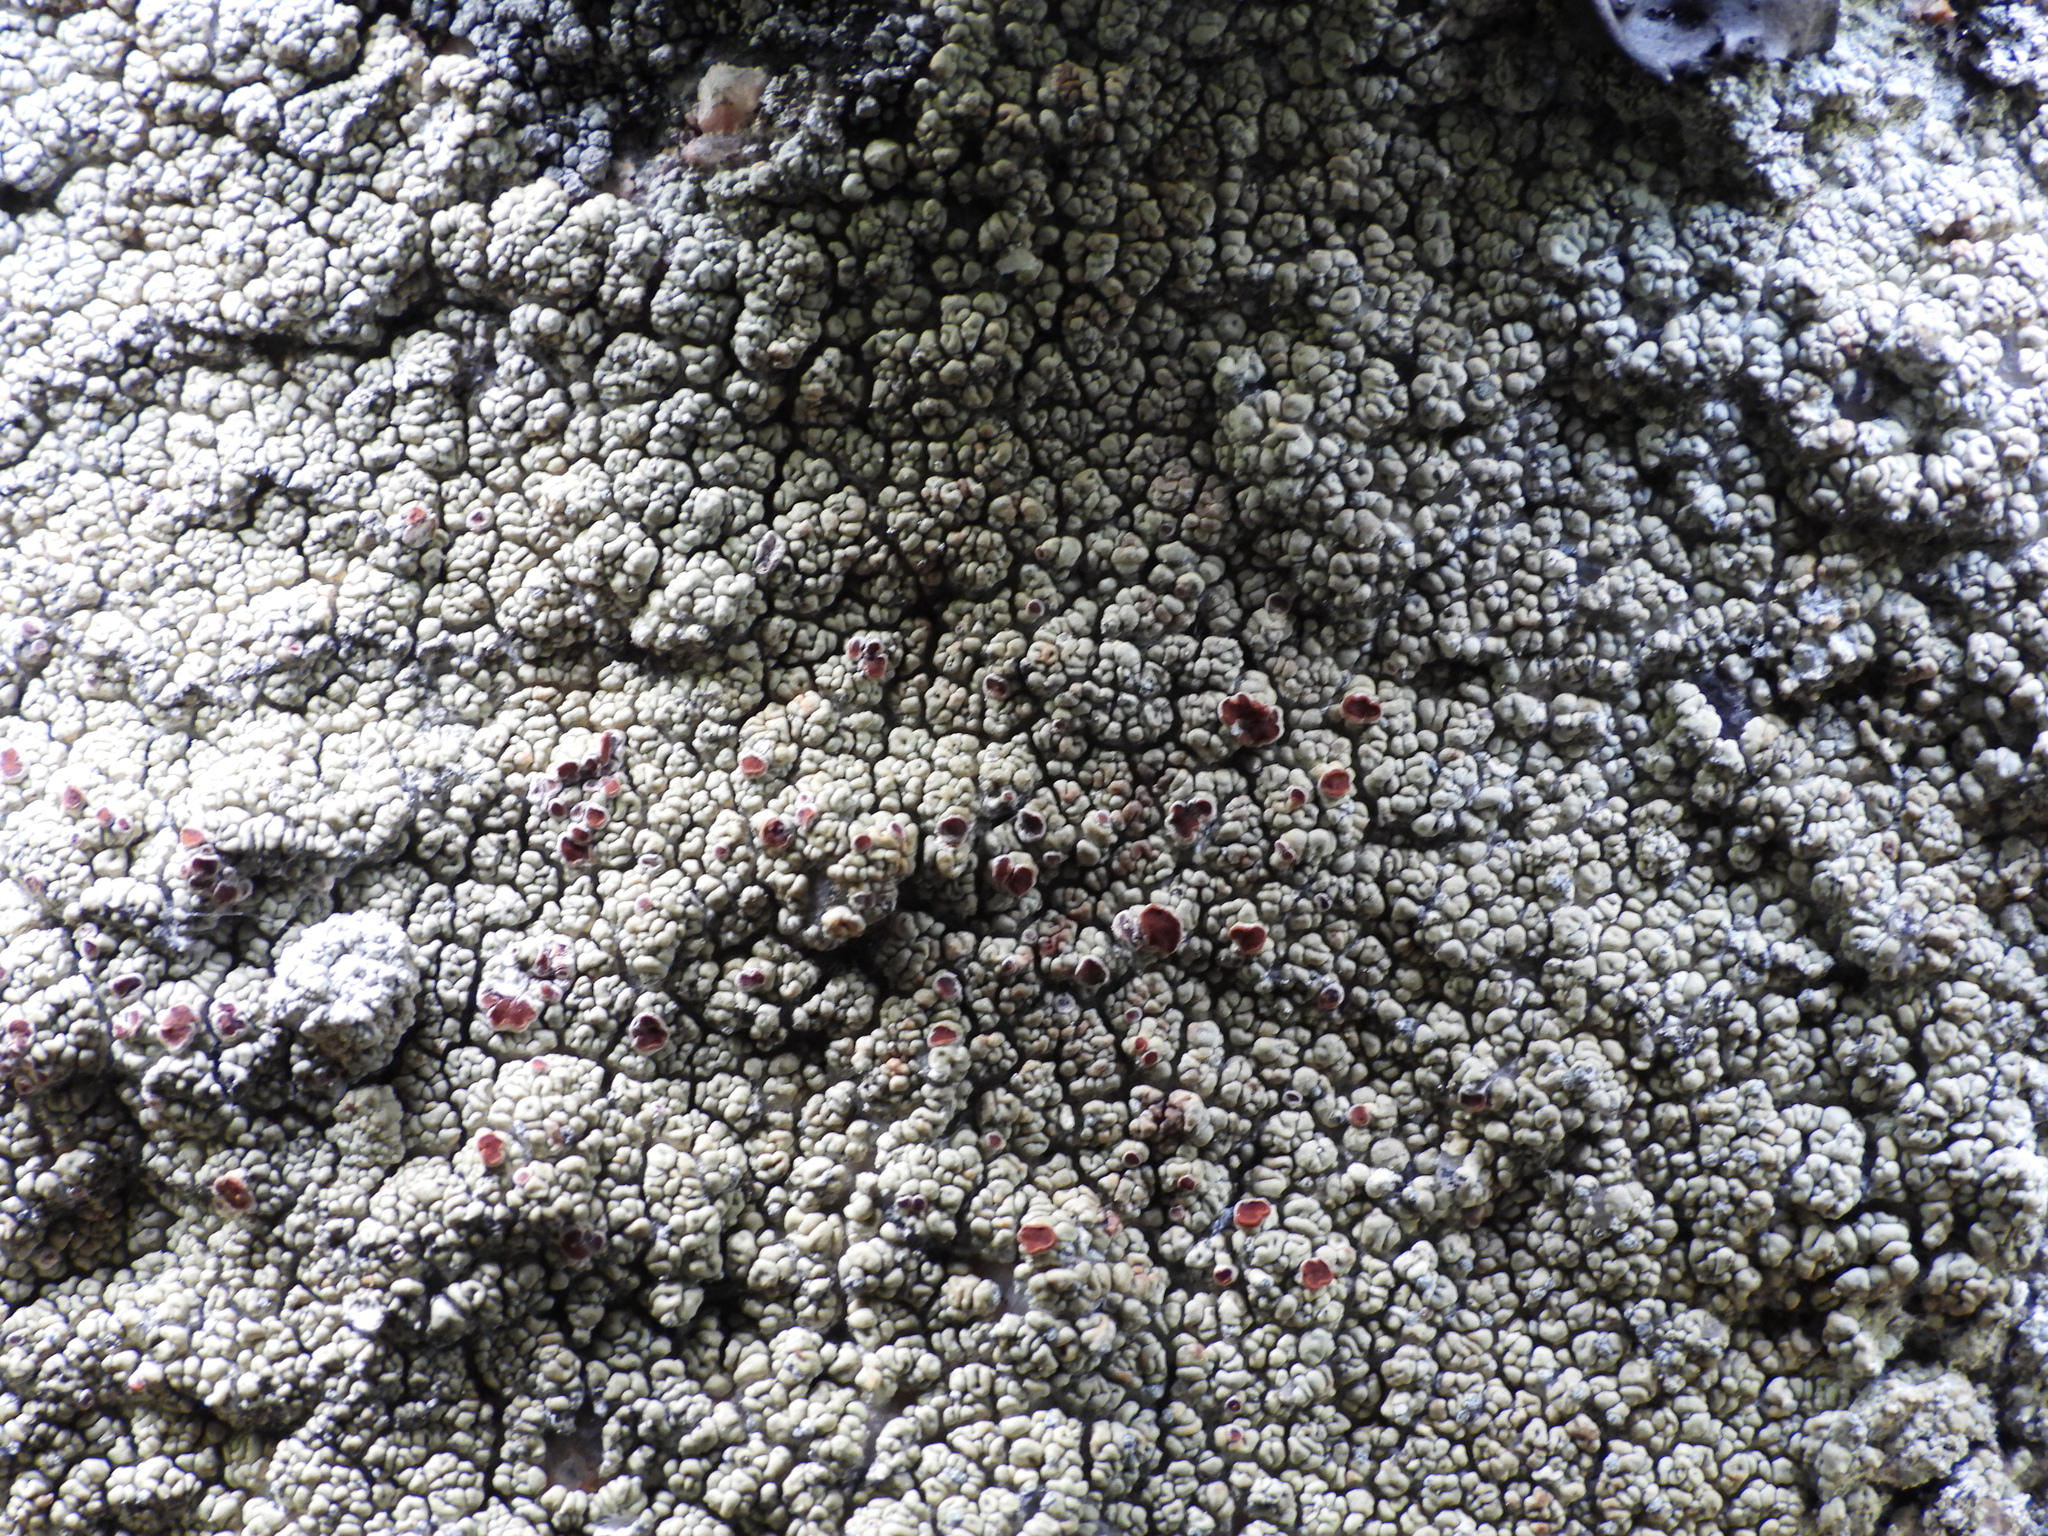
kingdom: Fungi
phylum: Ascomycota
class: Lecanoromycetes
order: Umbilicariales
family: Ophioparmaceae
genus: Ophioparma
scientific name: Ophioparma ventosa
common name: Blood-spot
